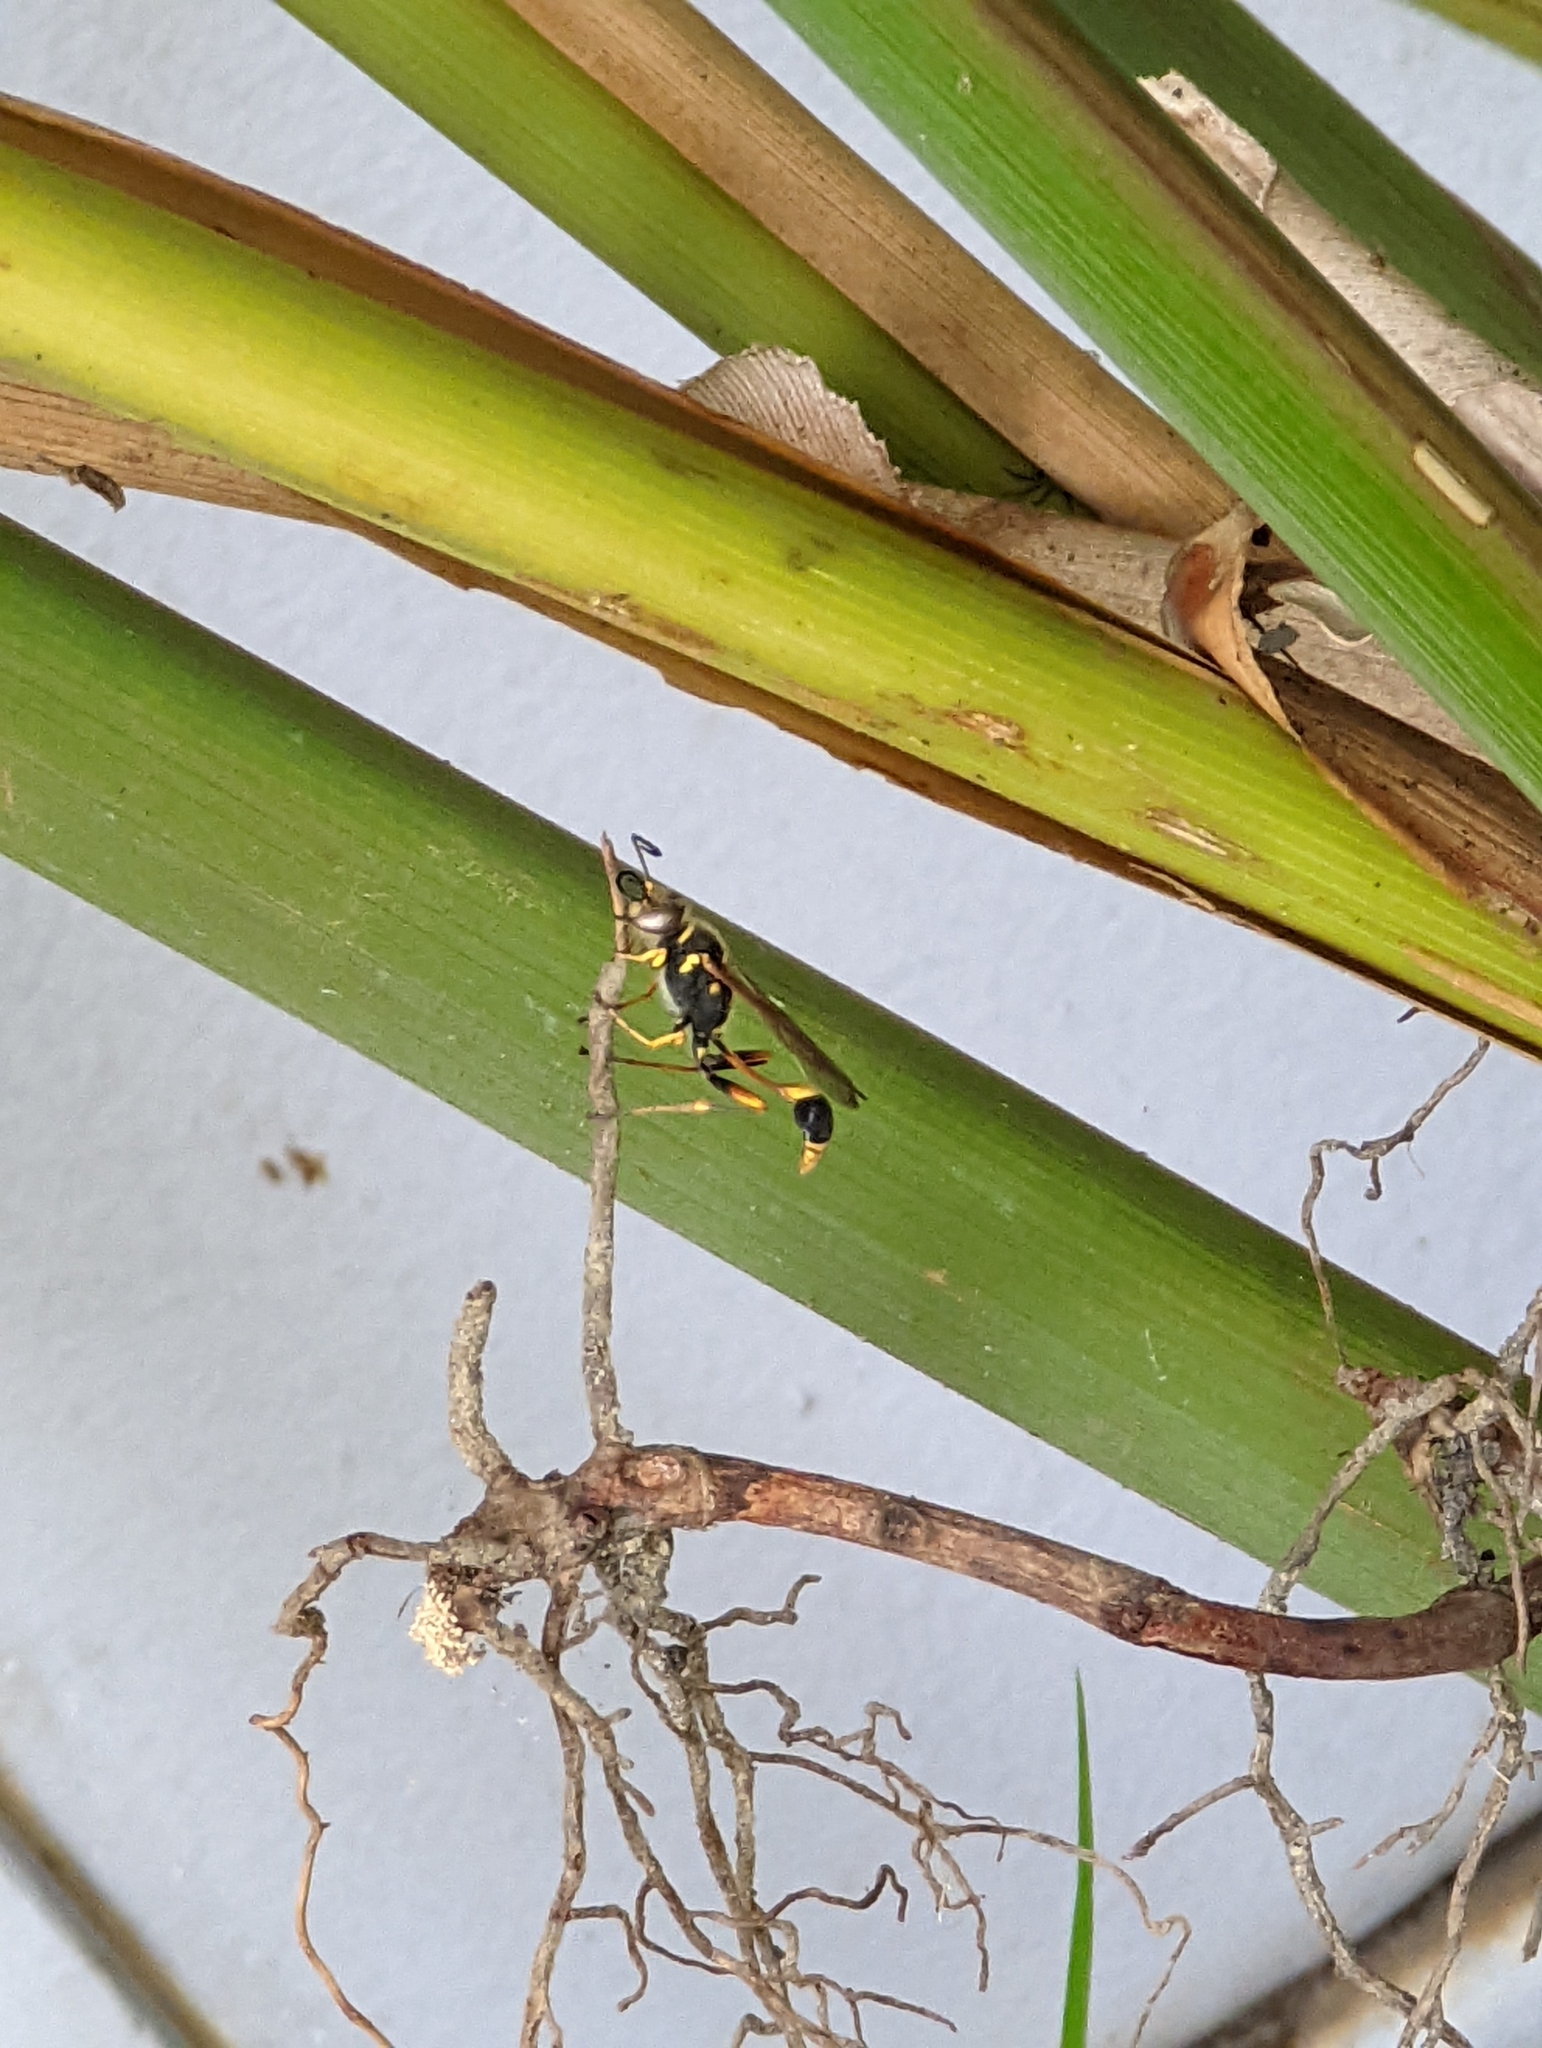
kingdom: Animalia
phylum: Arthropoda
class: Insecta
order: Hymenoptera
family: Sphecidae
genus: Sceliphron
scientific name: Sceliphron formosum
